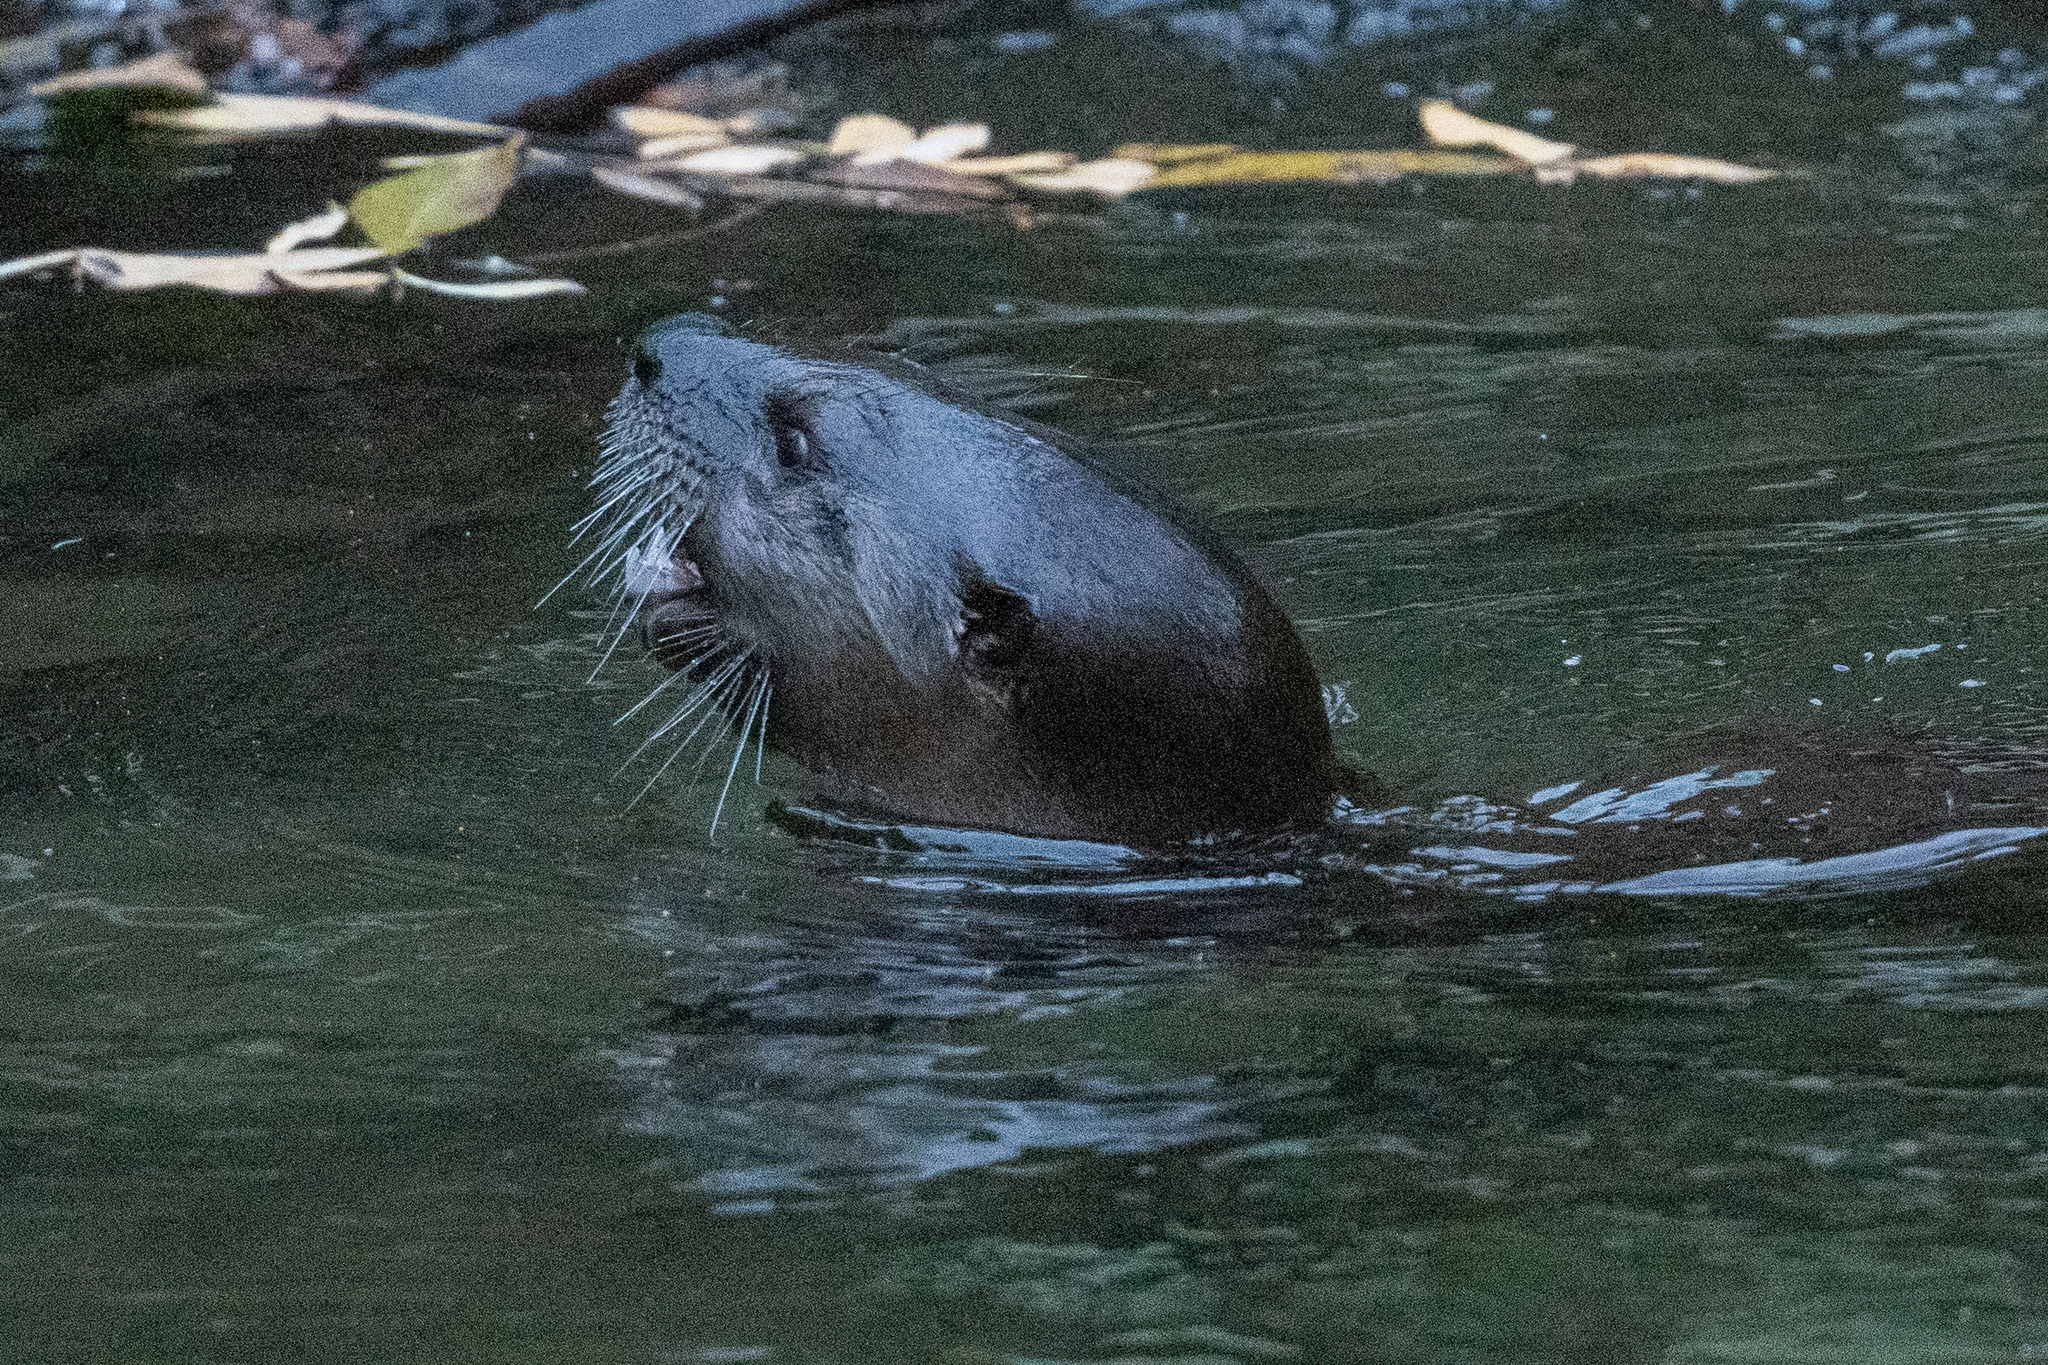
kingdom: Animalia
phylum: Chordata
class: Mammalia
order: Carnivora
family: Mustelidae
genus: Lontra
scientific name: Lontra canadensis
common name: North american river otter
